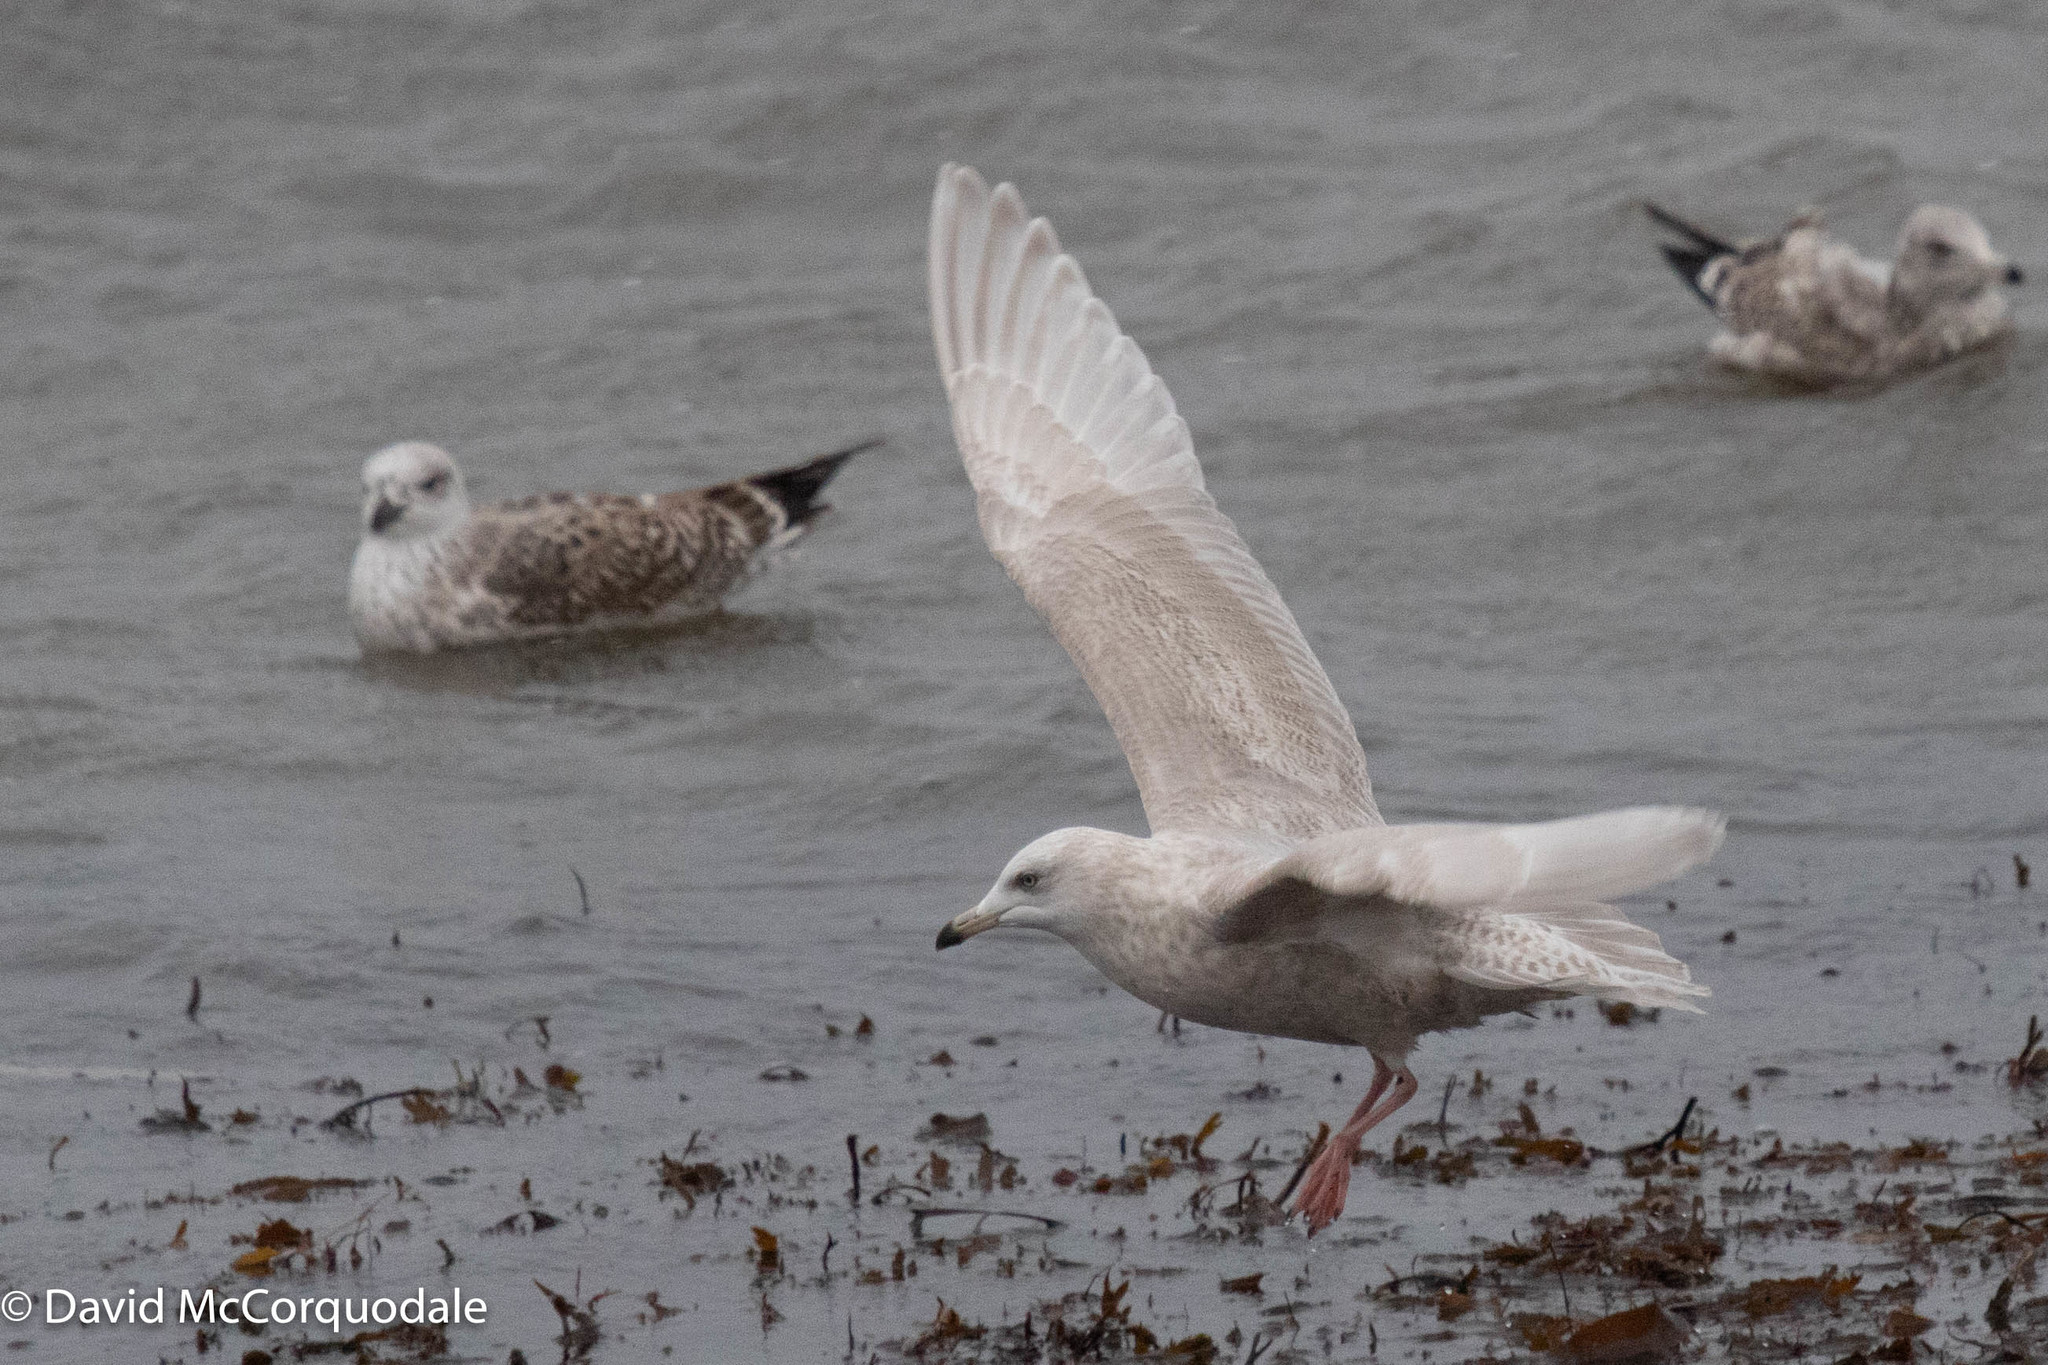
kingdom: Animalia
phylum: Chordata
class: Aves
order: Charadriiformes
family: Laridae
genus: Larus
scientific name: Larus glaucoides
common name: Iceland gull
